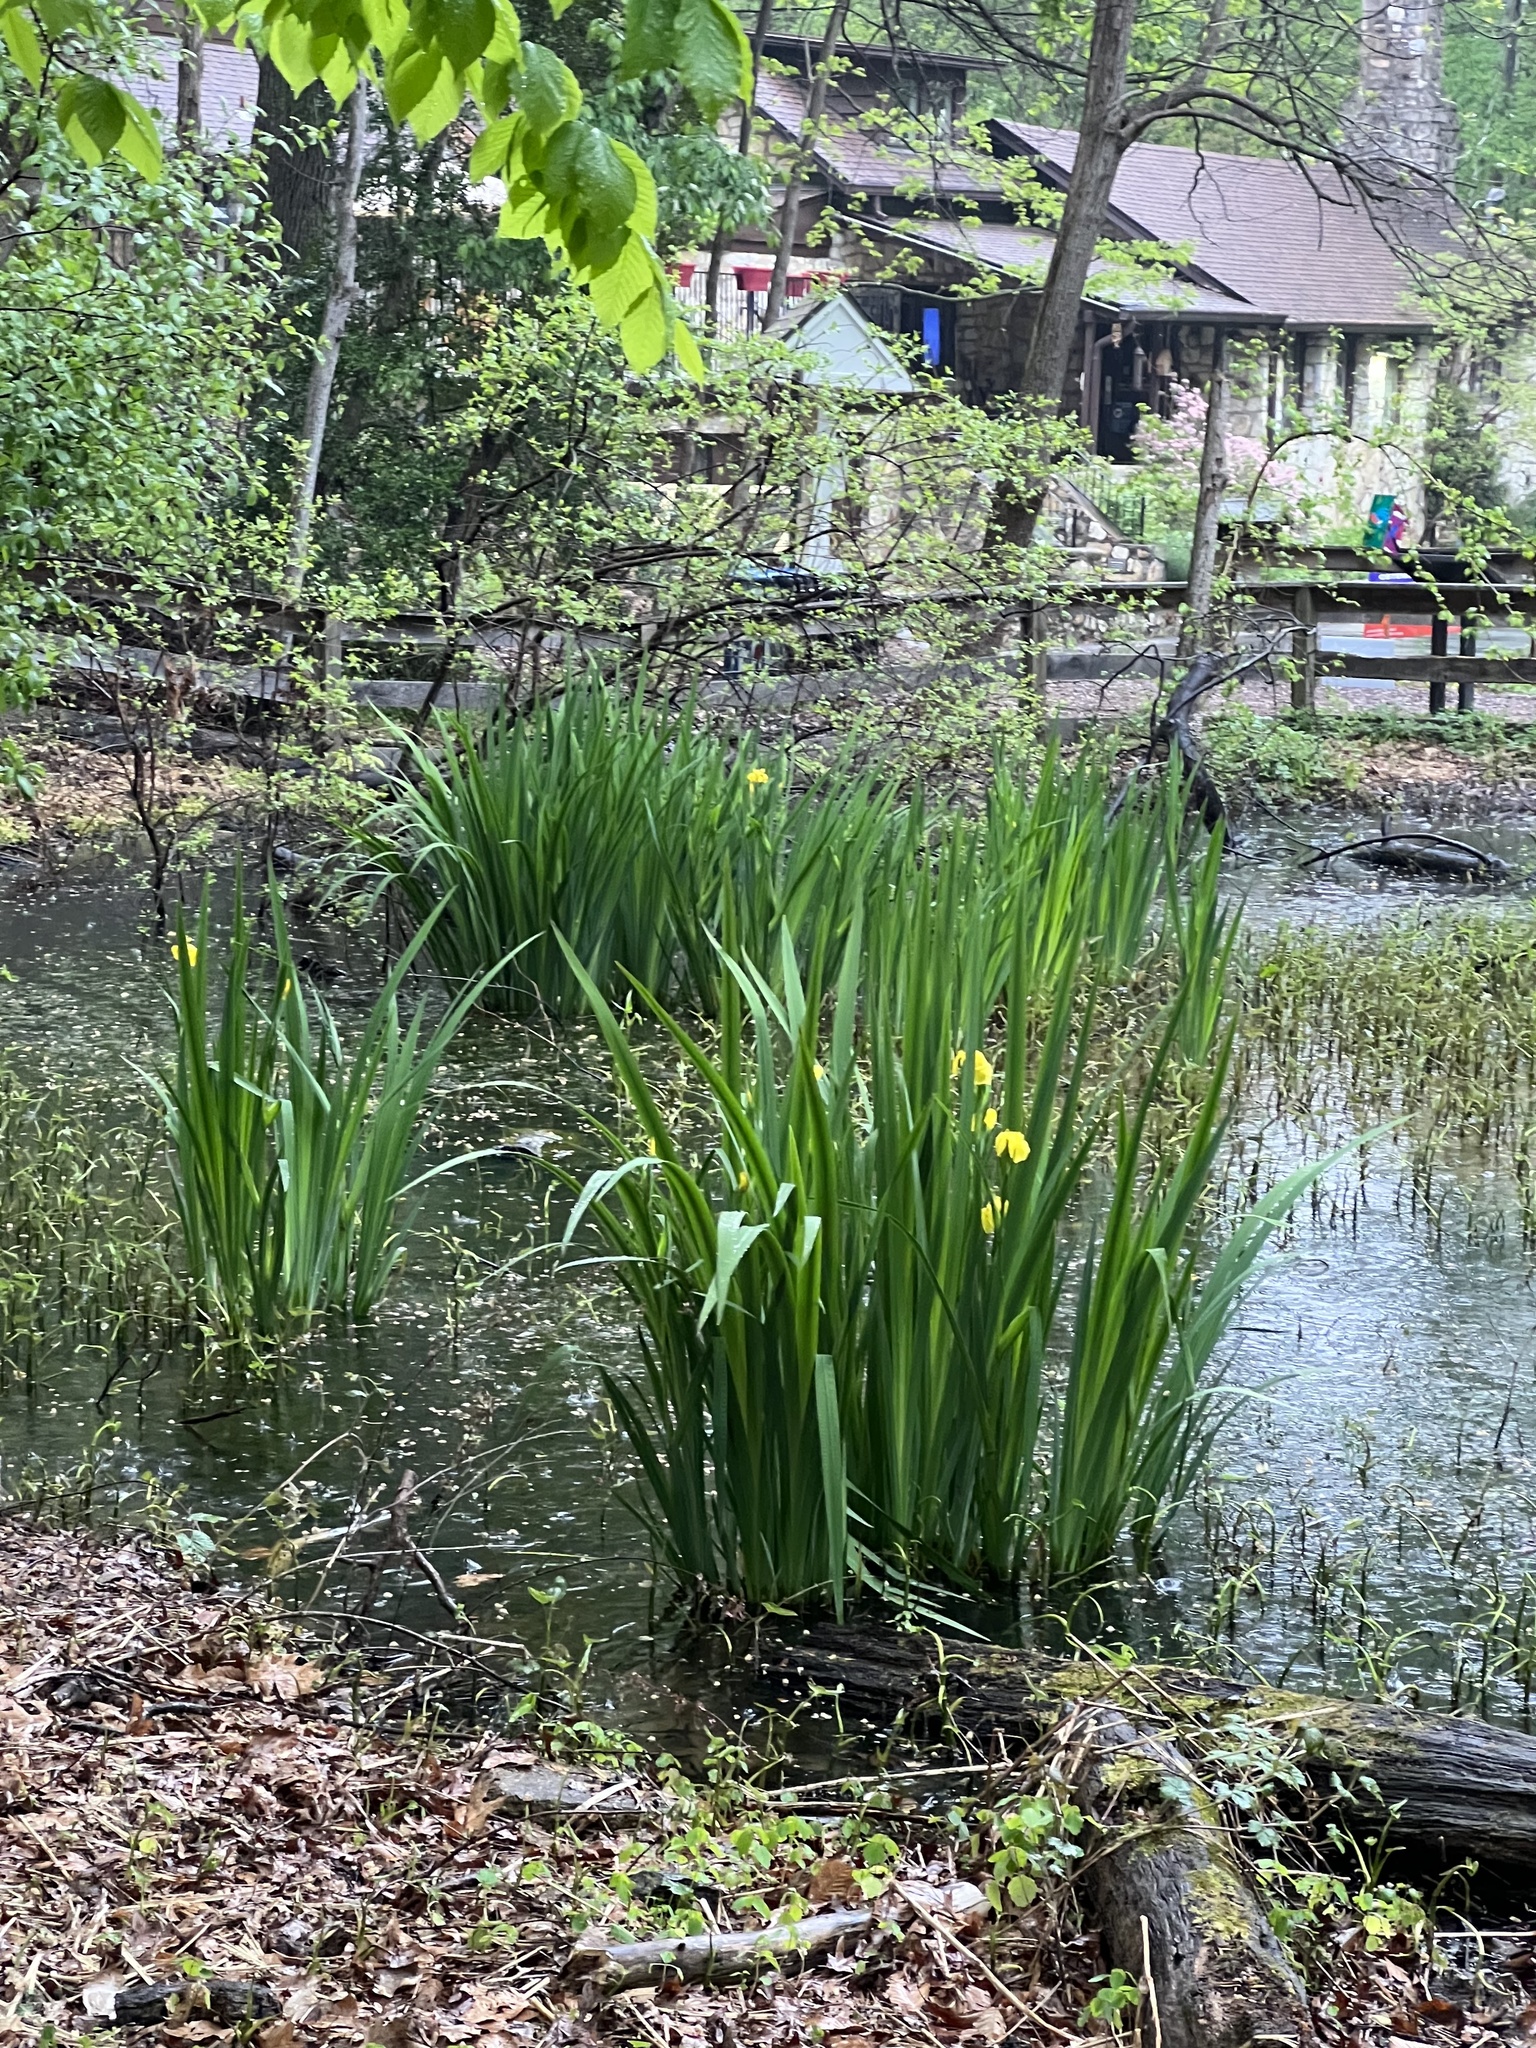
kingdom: Plantae
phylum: Tracheophyta
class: Liliopsida
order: Asparagales
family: Iridaceae
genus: Iris
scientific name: Iris pseudacorus
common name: Yellow flag
